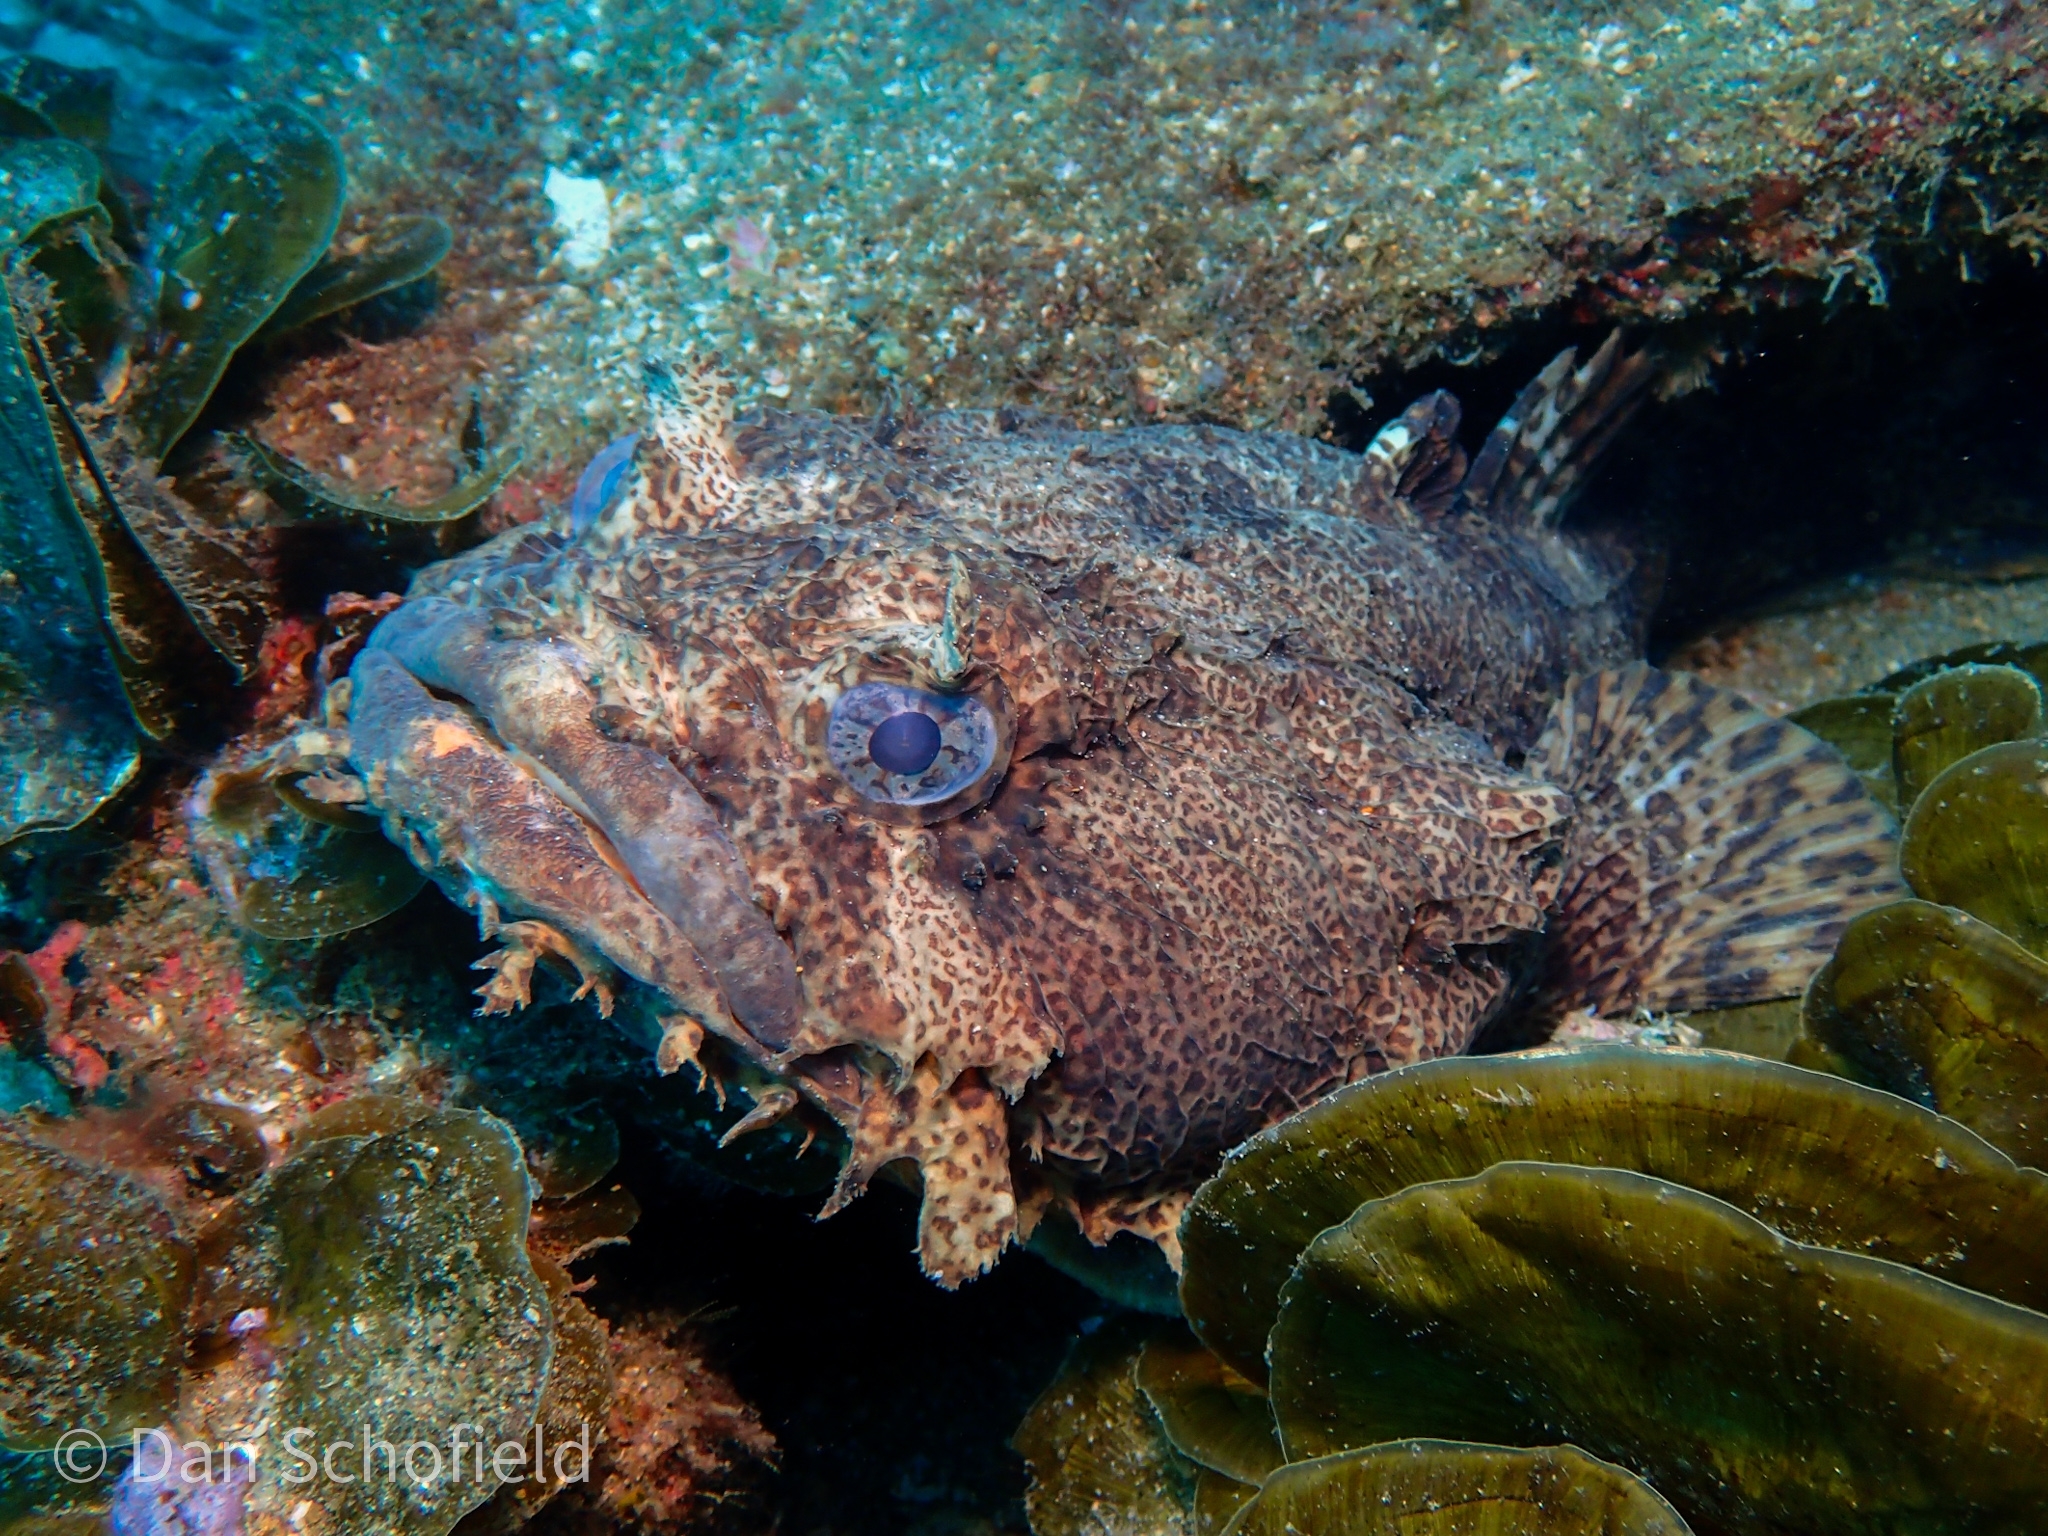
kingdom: Animalia
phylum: Chordata
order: Batrachoidiformes
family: Batrachoididae
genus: Opsanus
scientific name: Opsanus tau
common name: Oyster toadfish
